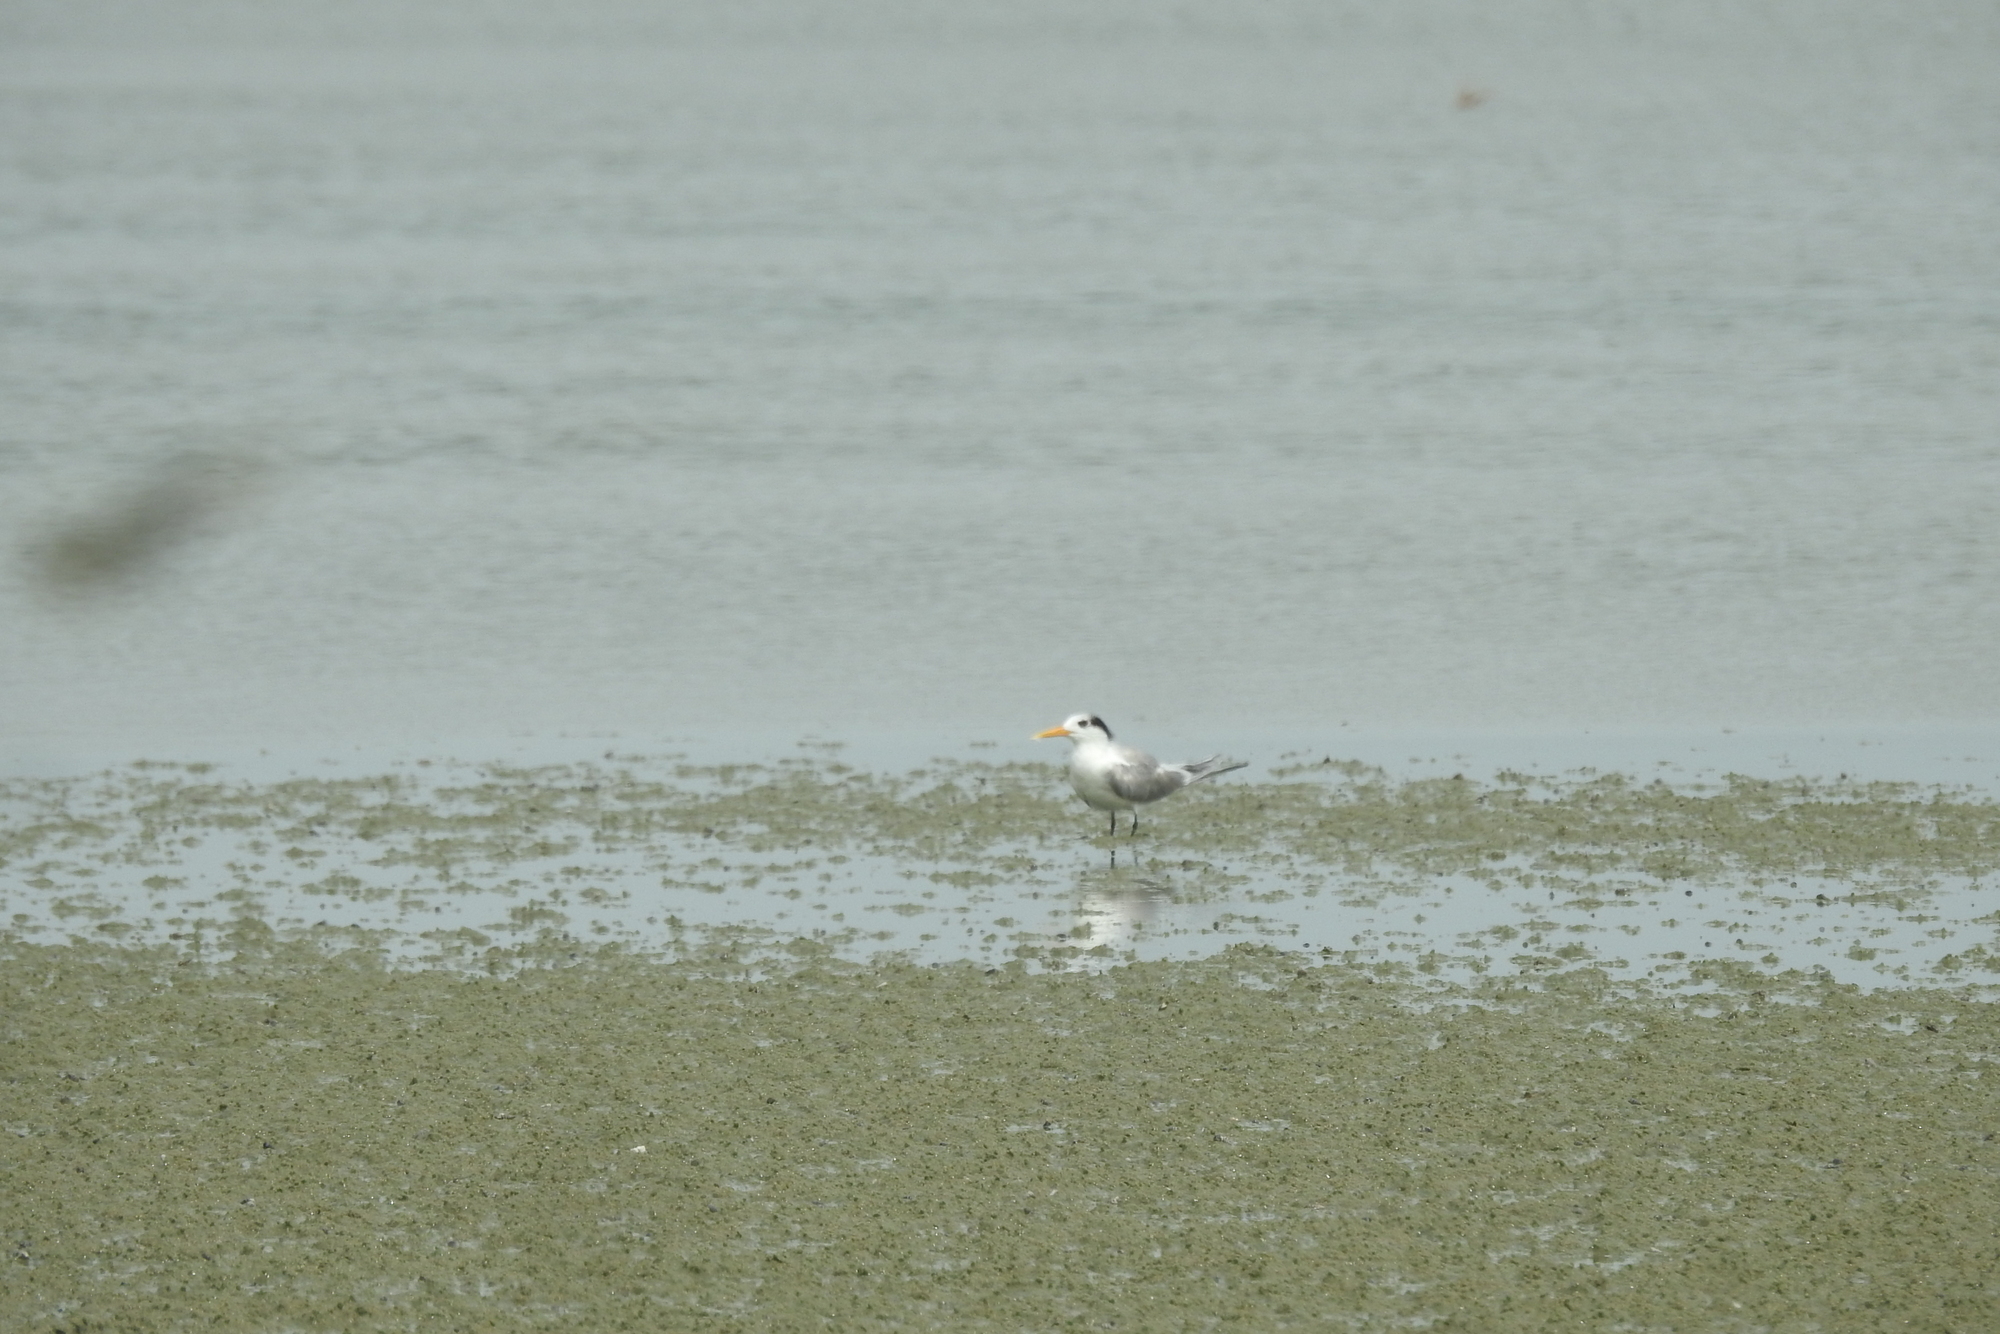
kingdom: Animalia
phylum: Chordata
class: Aves
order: Charadriiformes
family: Laridae
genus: Thalasseus
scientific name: Thalasseus bengalensis
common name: Lesser crested tern
